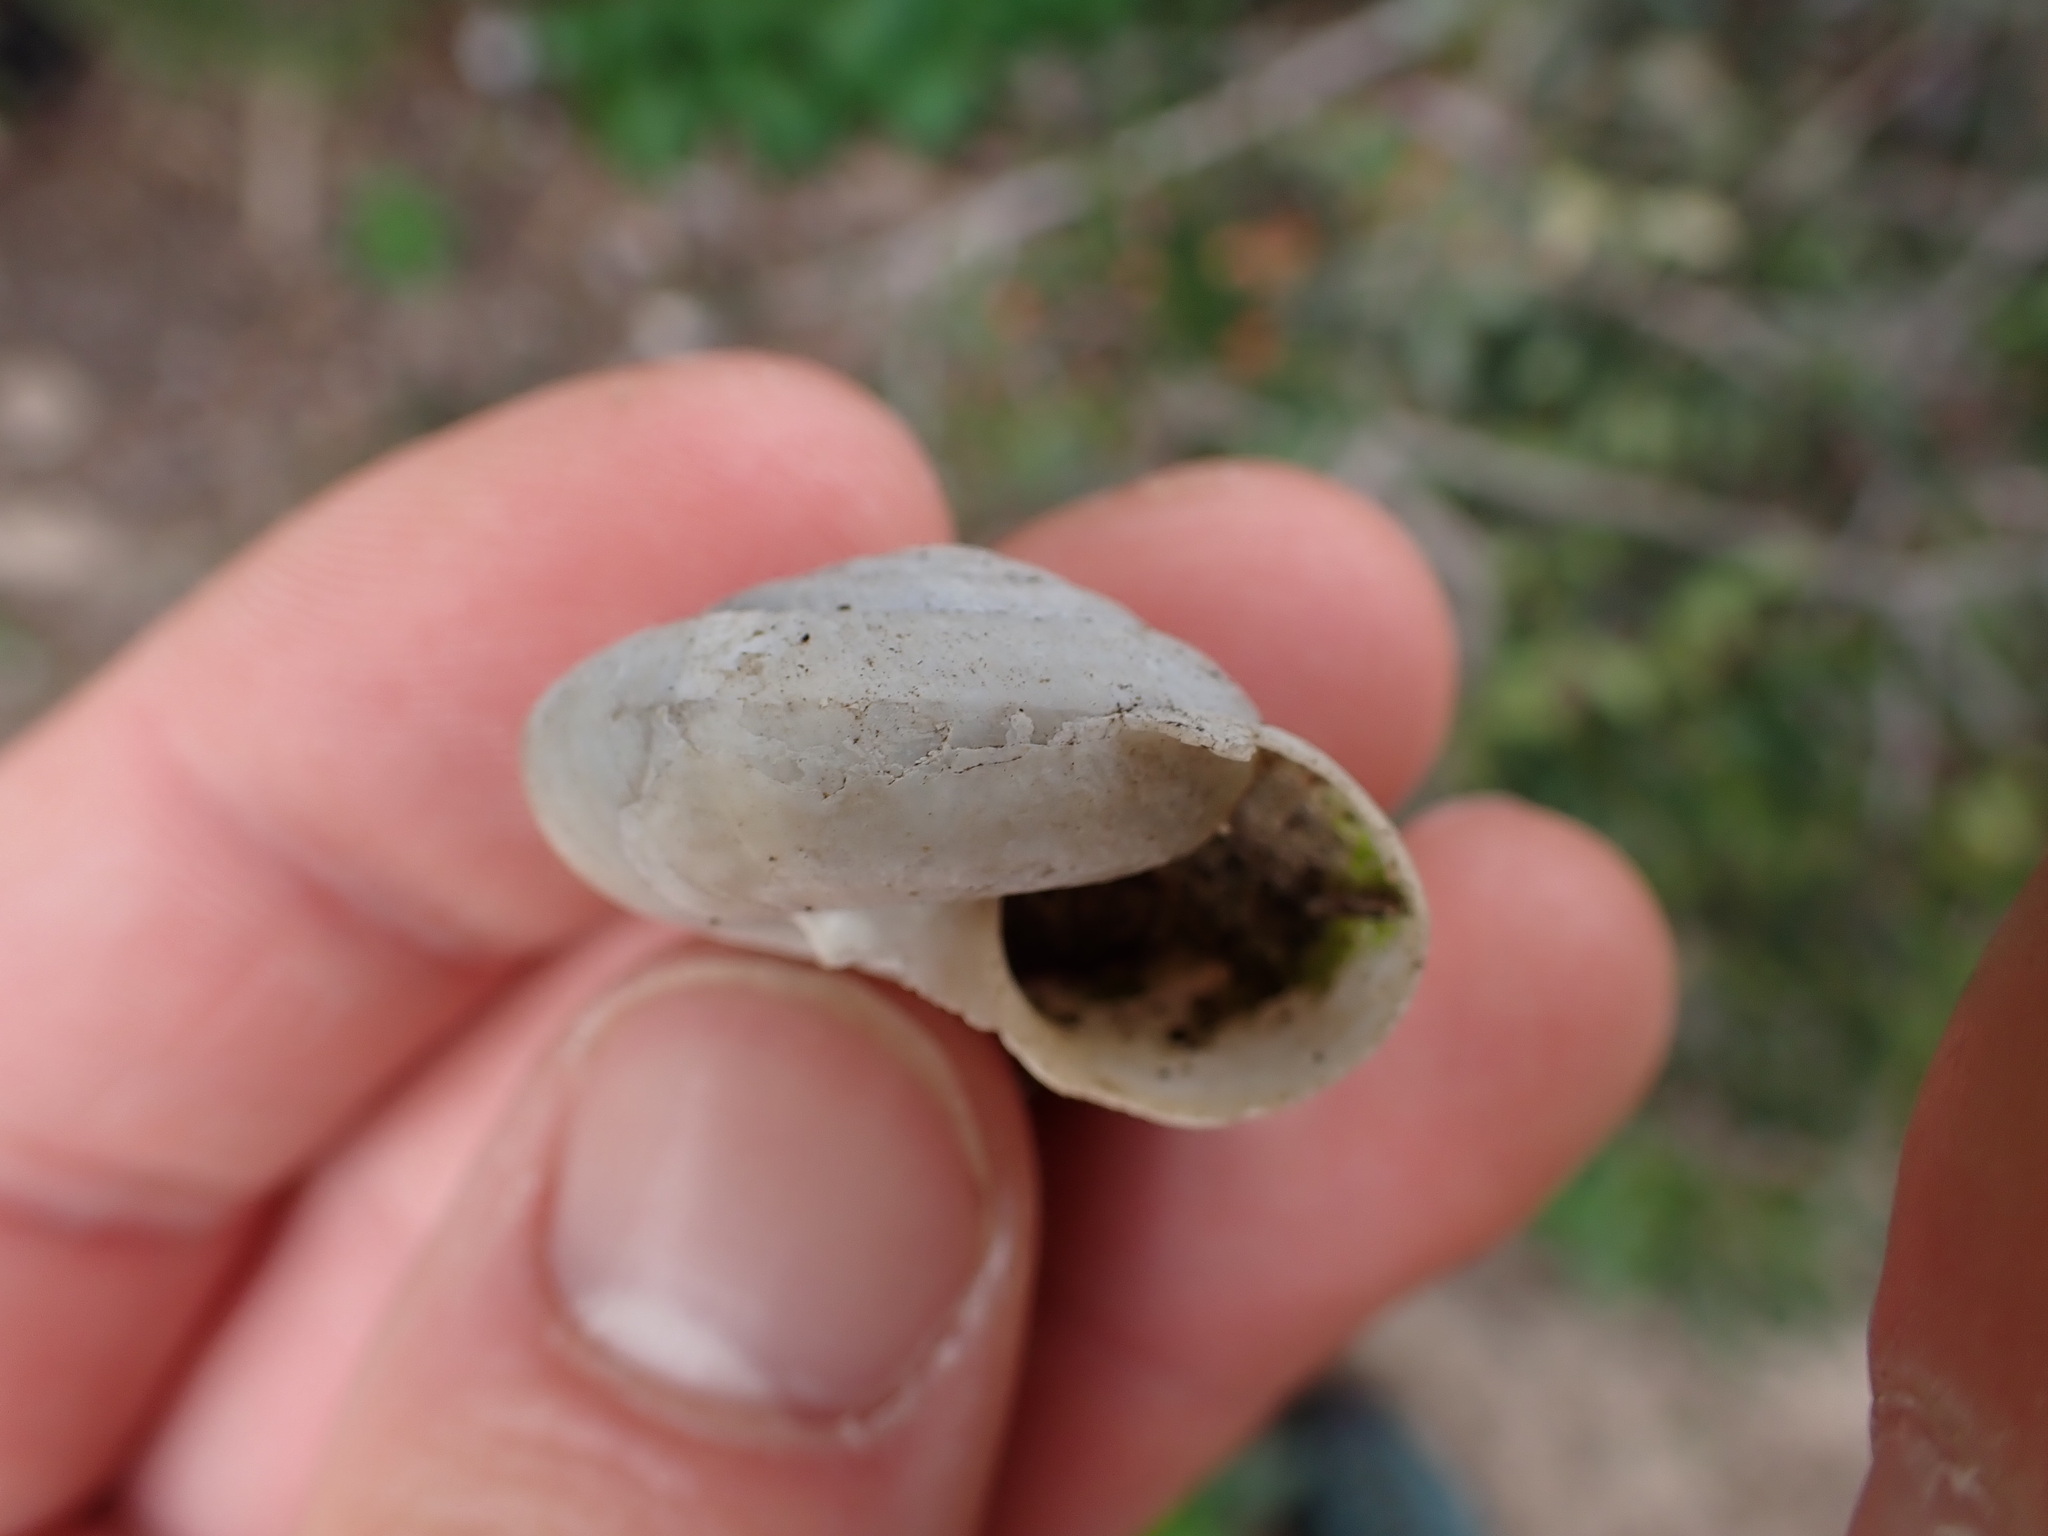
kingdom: Animalia
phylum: Mollusca
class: Gastropoda
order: Stylommatophora
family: Zonitidae
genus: Zonites
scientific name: Zonites algirus
